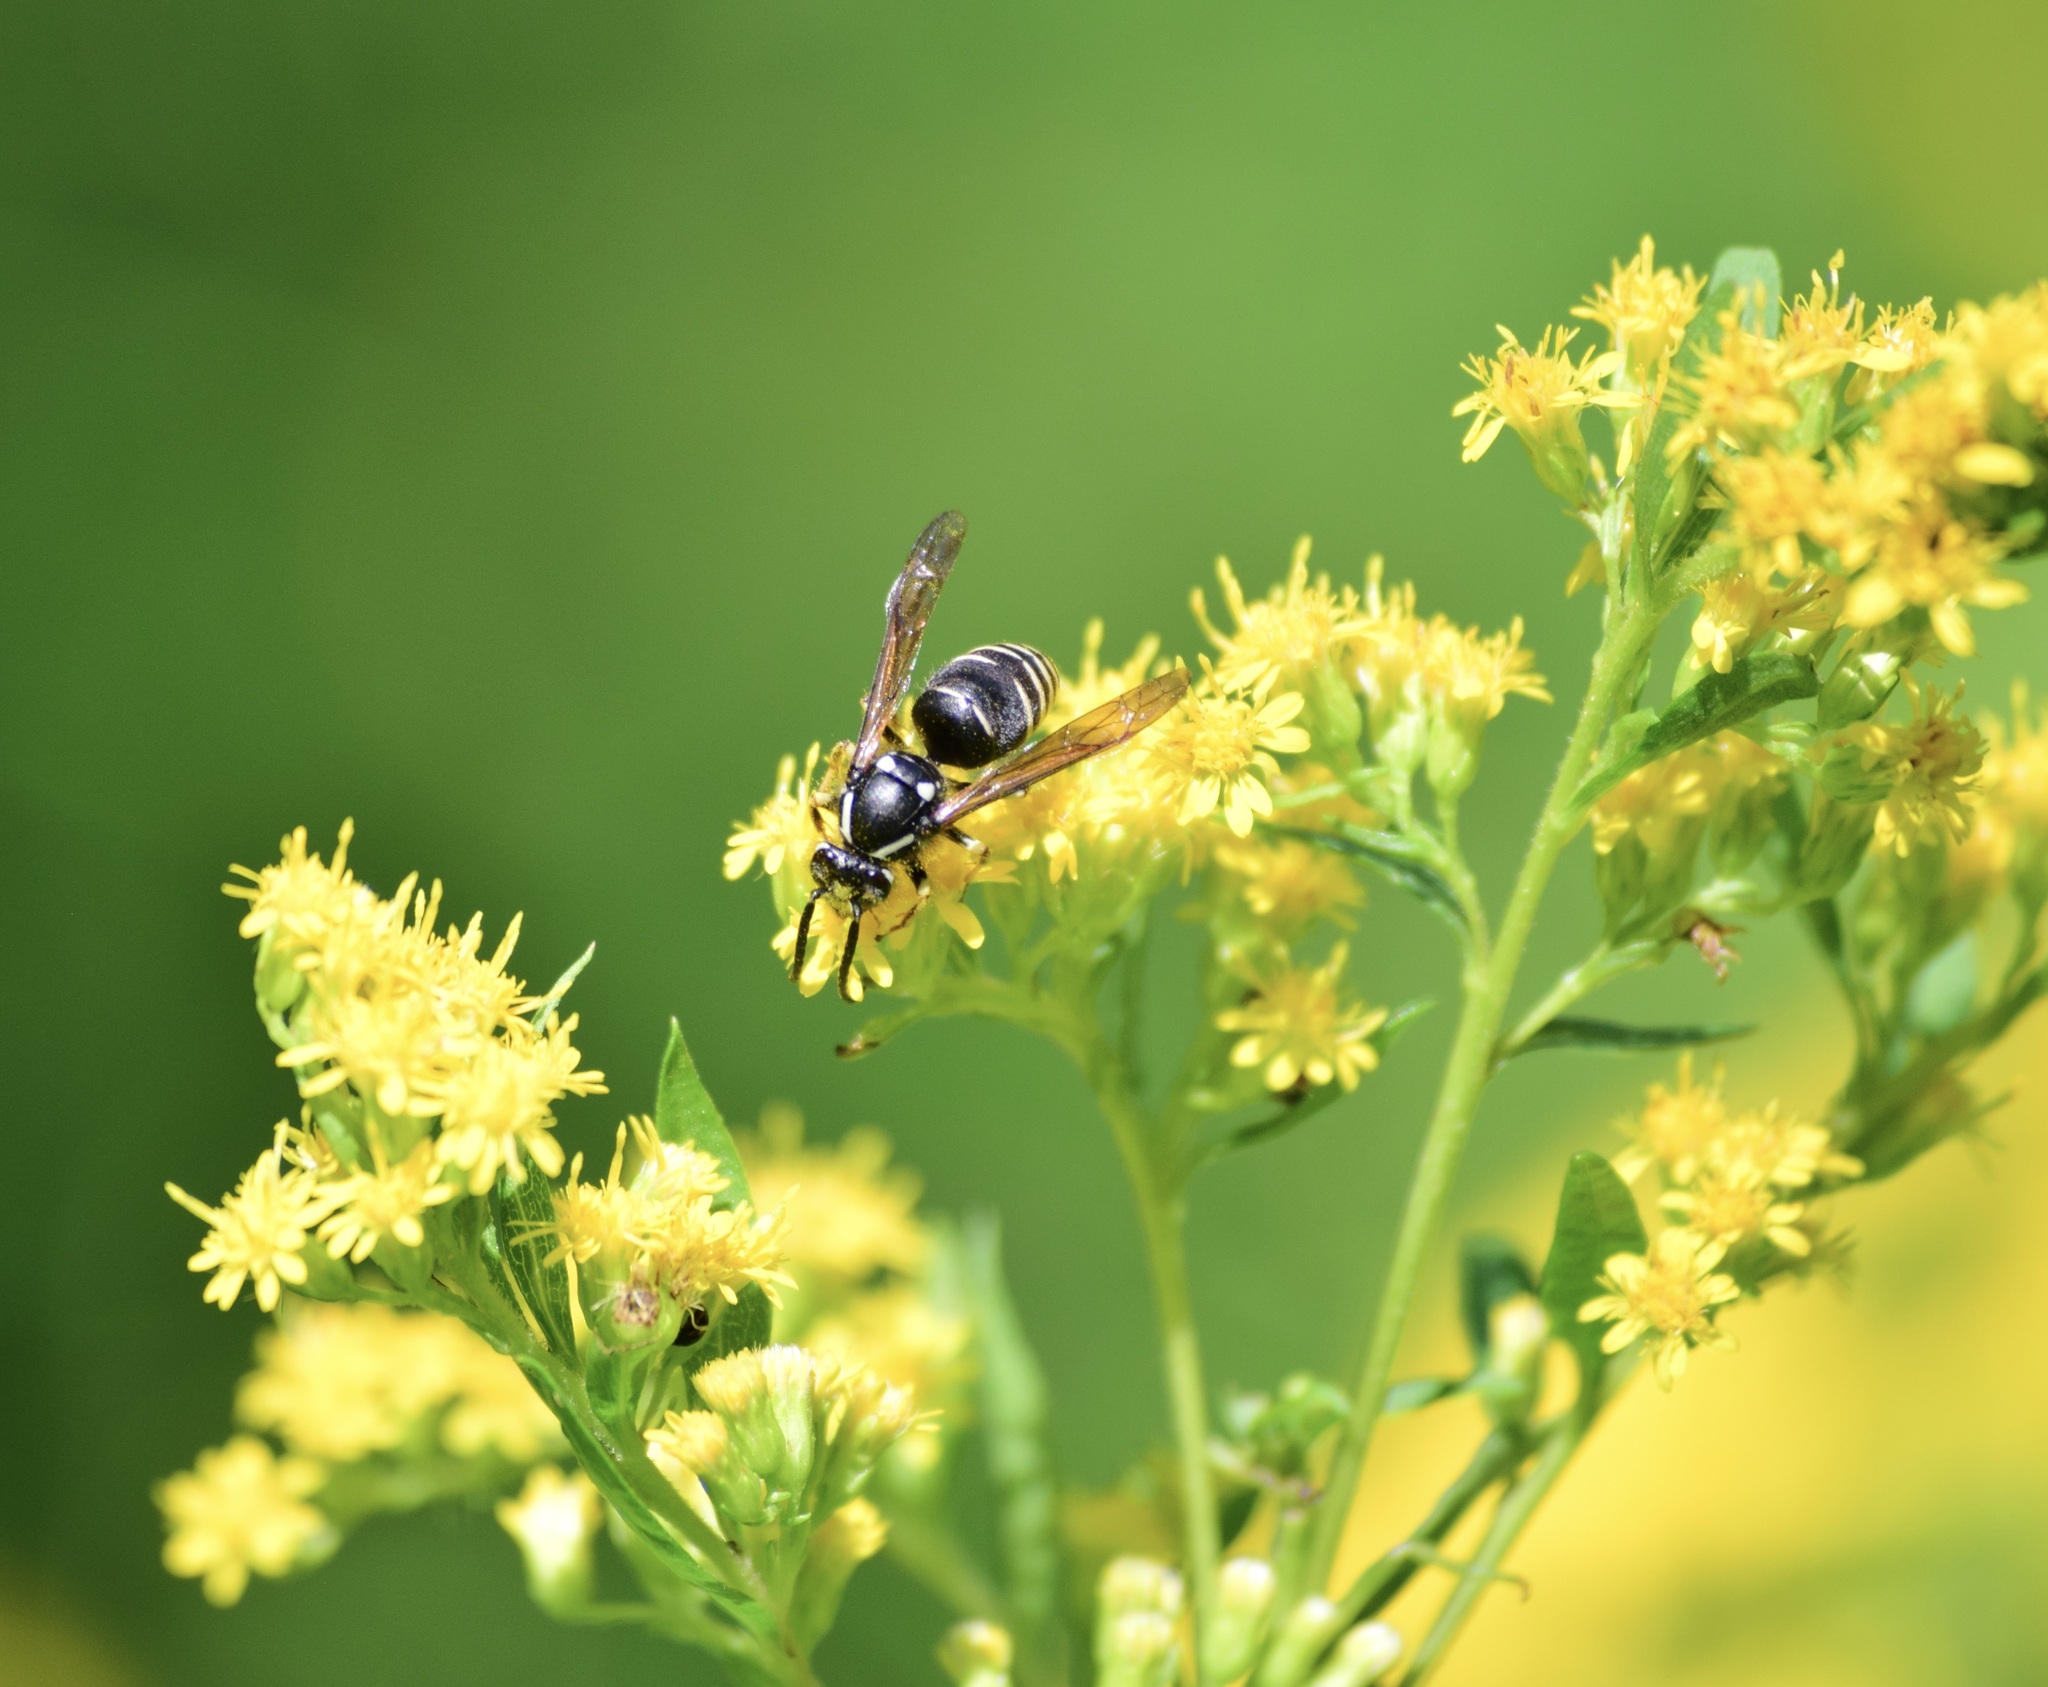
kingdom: Animalia
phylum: Arthropoda
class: Insecta
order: Hymenoptera
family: Vespidae
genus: Dolichovespula
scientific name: Dolichovespula adulterina
